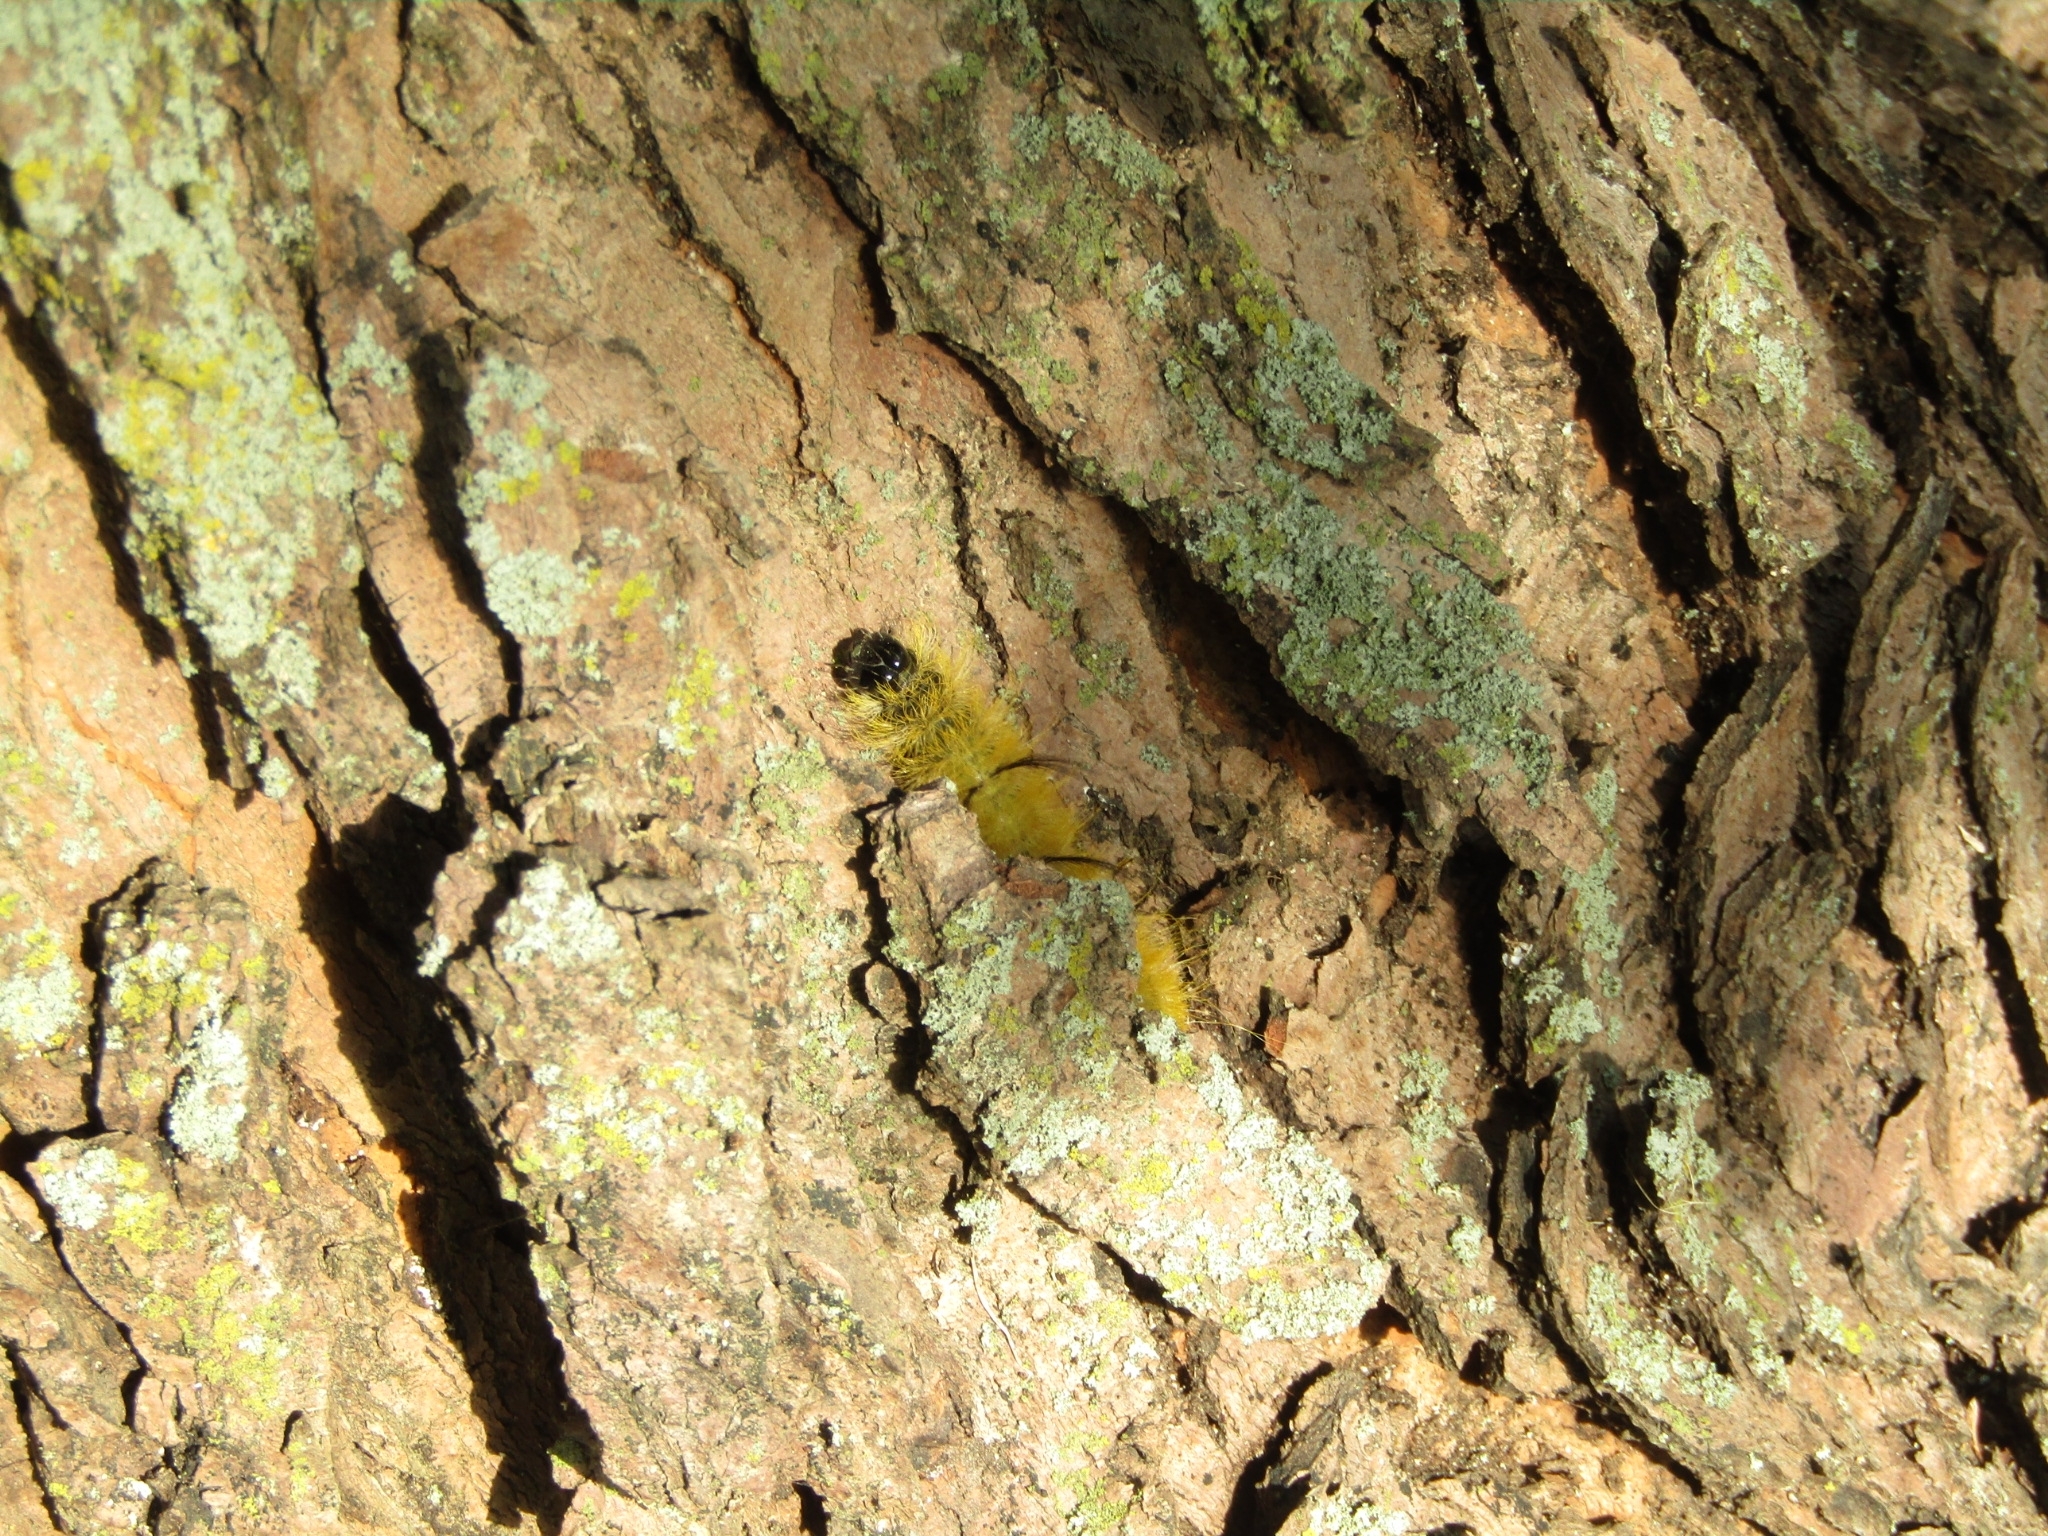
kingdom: Animalia
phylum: Arthropoda
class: Insecta
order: Lepidoptera
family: Noctuidae
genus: Acronicta
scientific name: Acronicta americana
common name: American dagger
